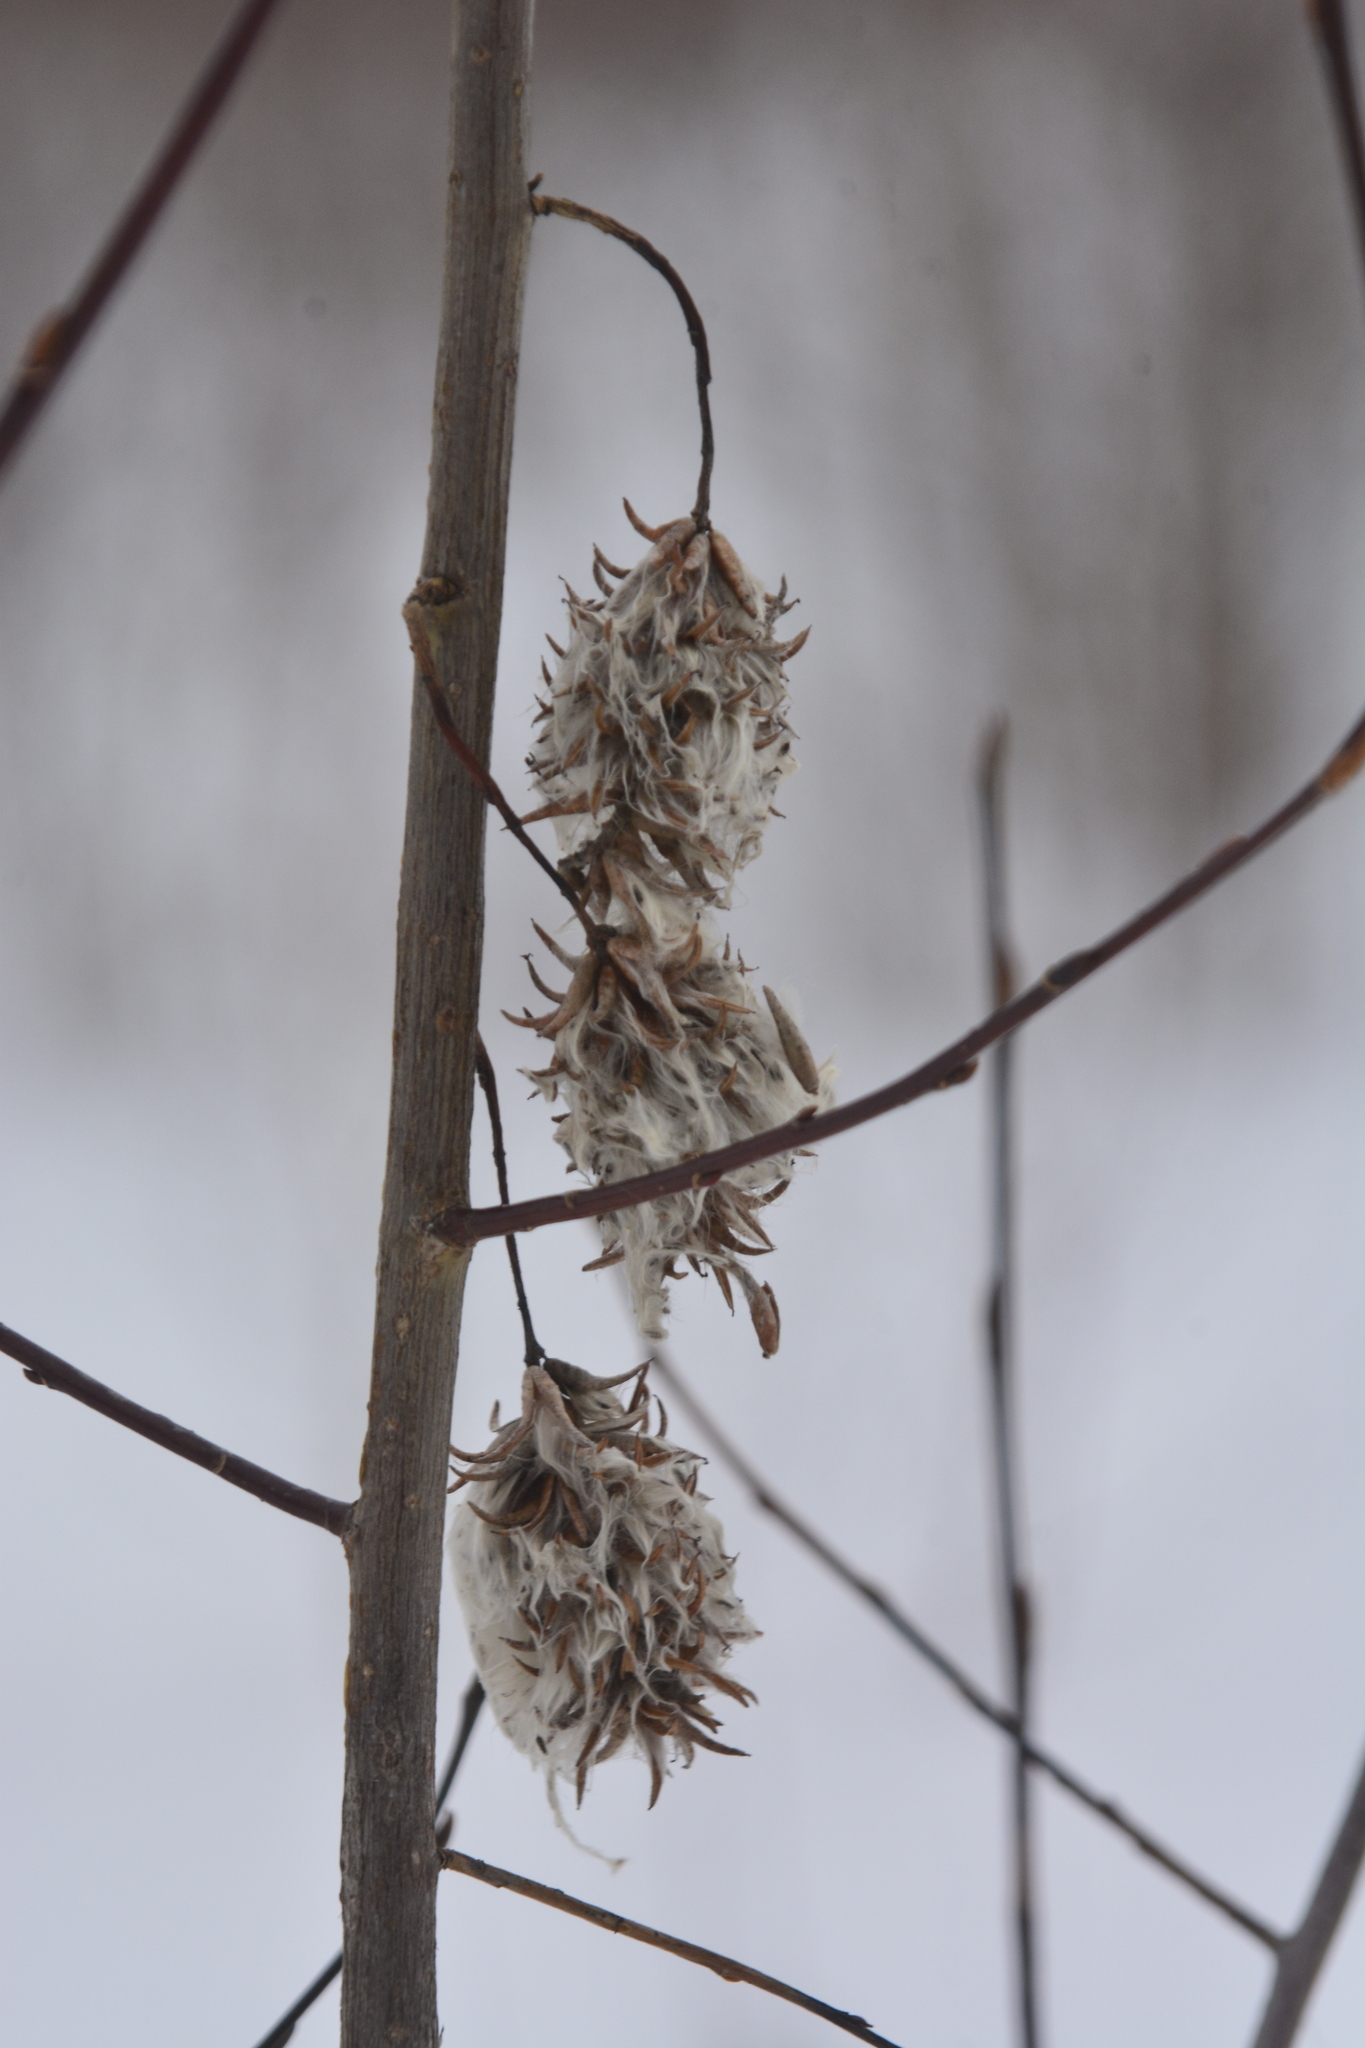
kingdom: Plantae
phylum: Tracheophyta
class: Magnoliopsida
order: Malpighiales
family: Salicaceae
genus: Salix
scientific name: Salix pentandra
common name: Bay willow
